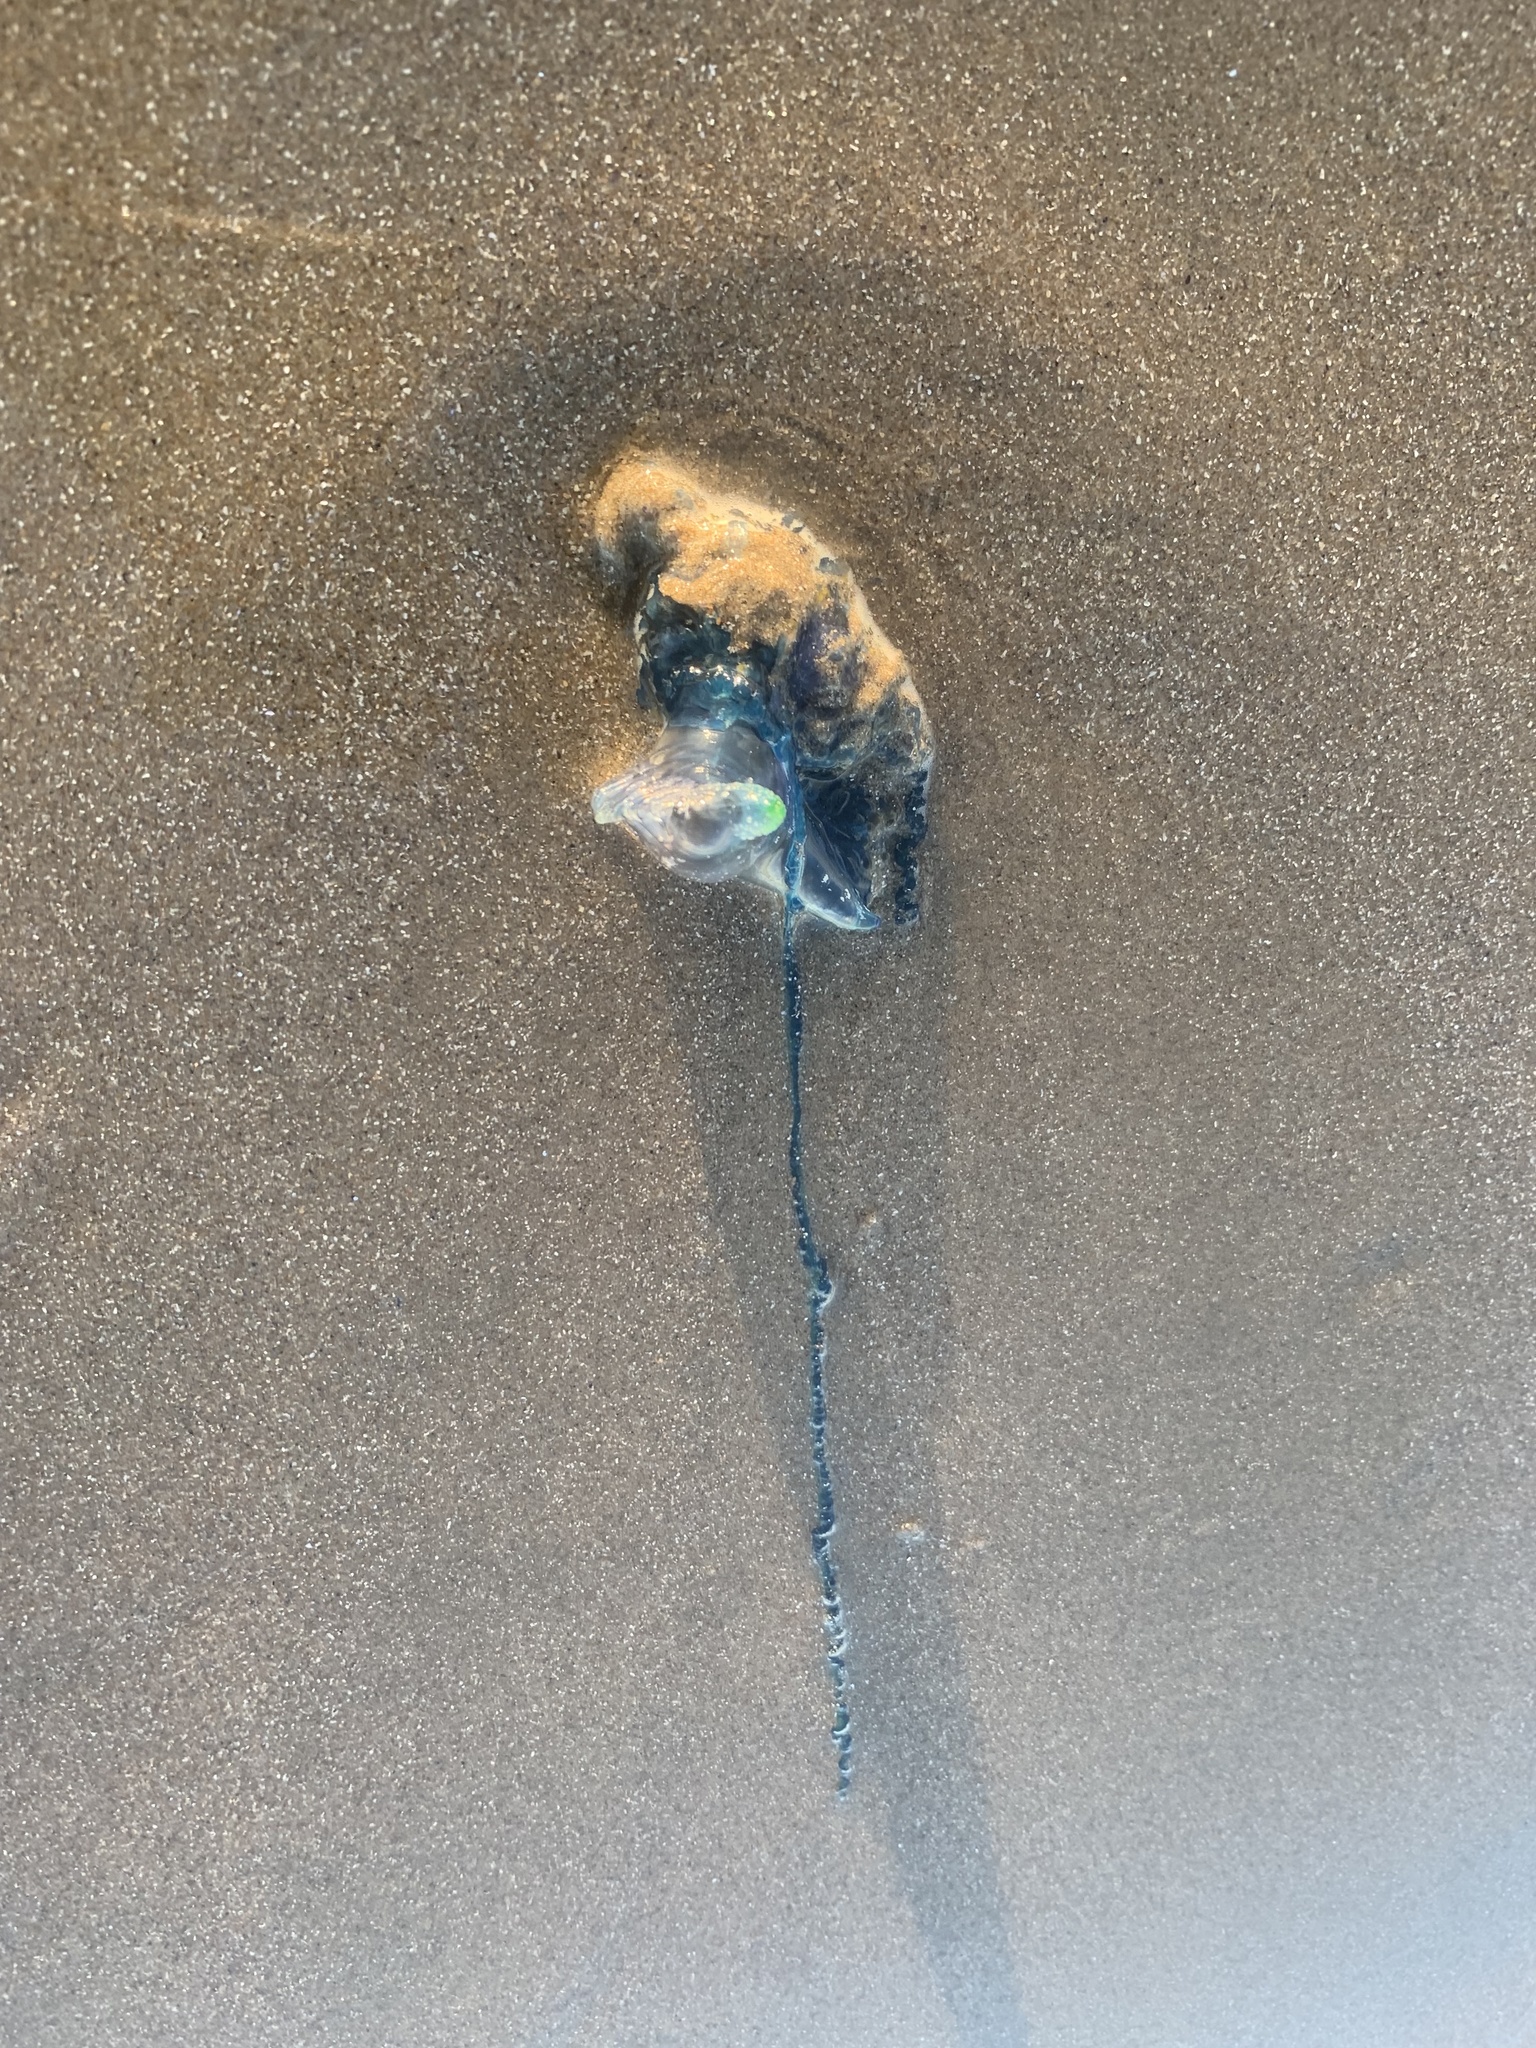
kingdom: Animalia
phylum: Cnidaria
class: Hydrozoa
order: Siphonophorae
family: Physaliidae
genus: Physalia
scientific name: Physalia physalis
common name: Portuguese man-of-war
